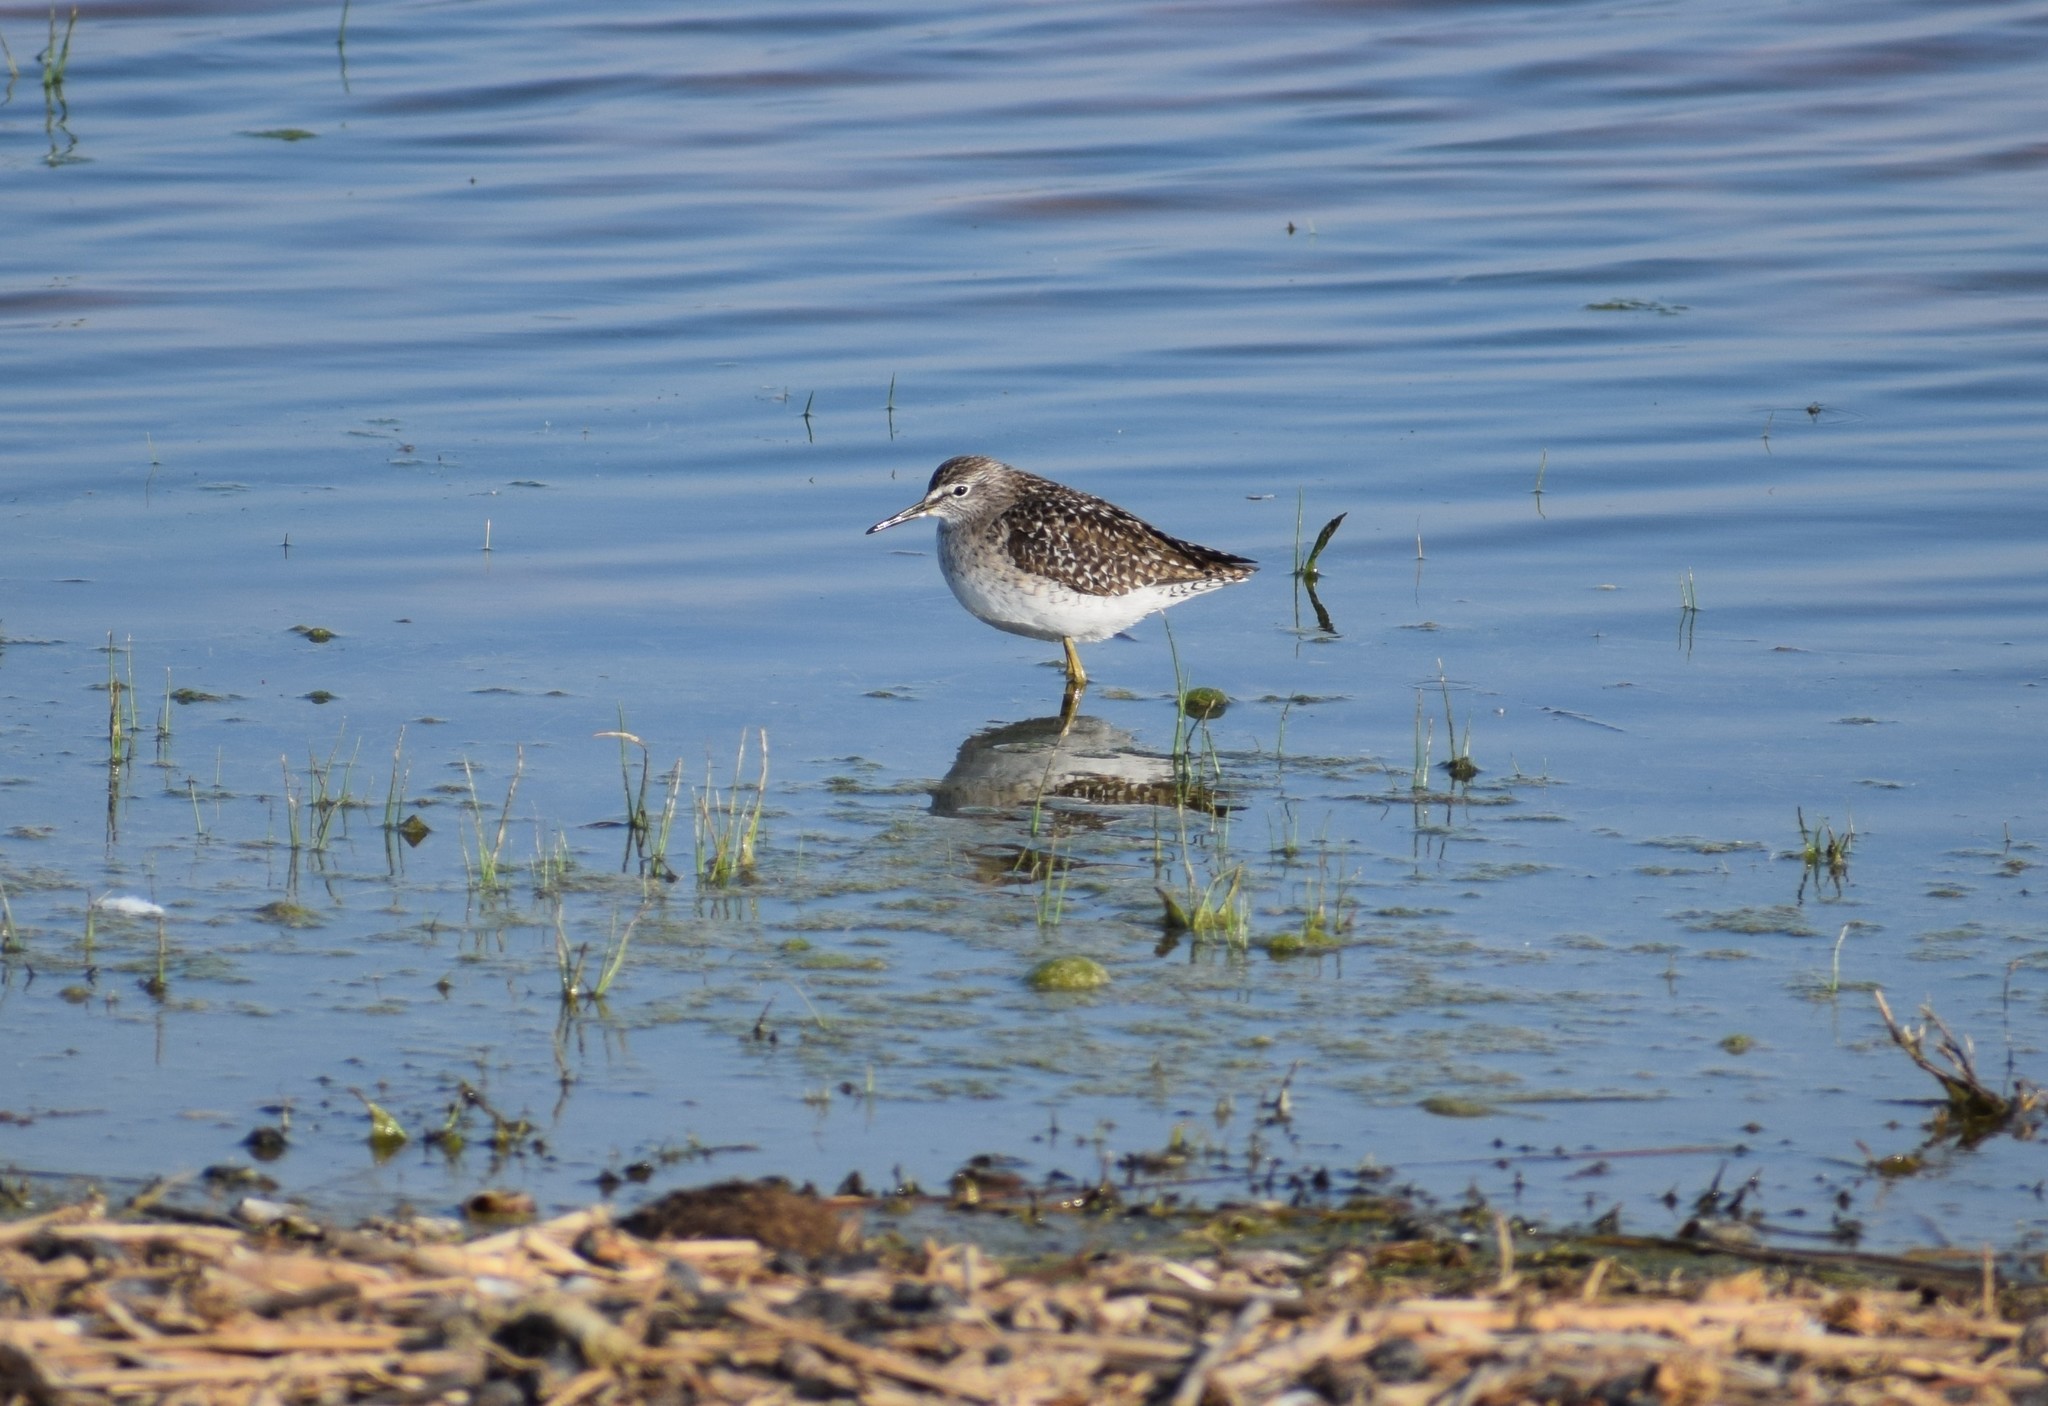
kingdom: Animalia
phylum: Chordata
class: Aves
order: Charadriiformes
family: Scolopacidae
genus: Tringa
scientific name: Tringa glareola
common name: Wood sandpiper
